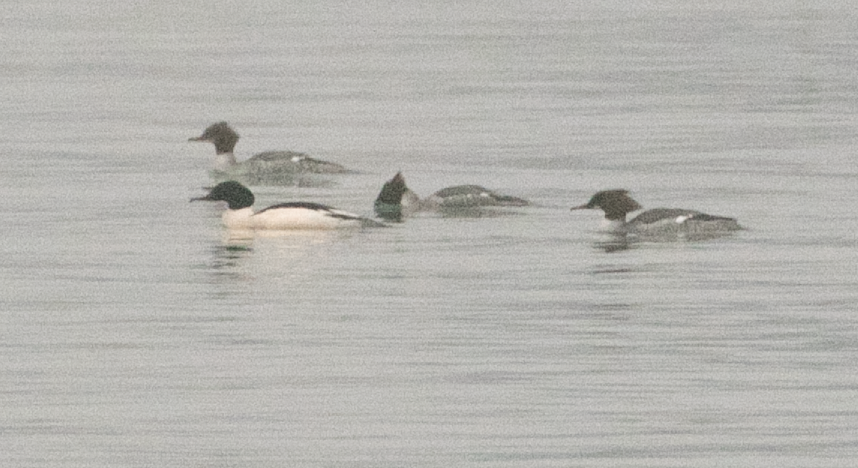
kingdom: Animalia
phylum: Chordata
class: Aves
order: Anseriformes
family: Anatidae
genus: Mergus
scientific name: Mergus merganser
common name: Common merganser
